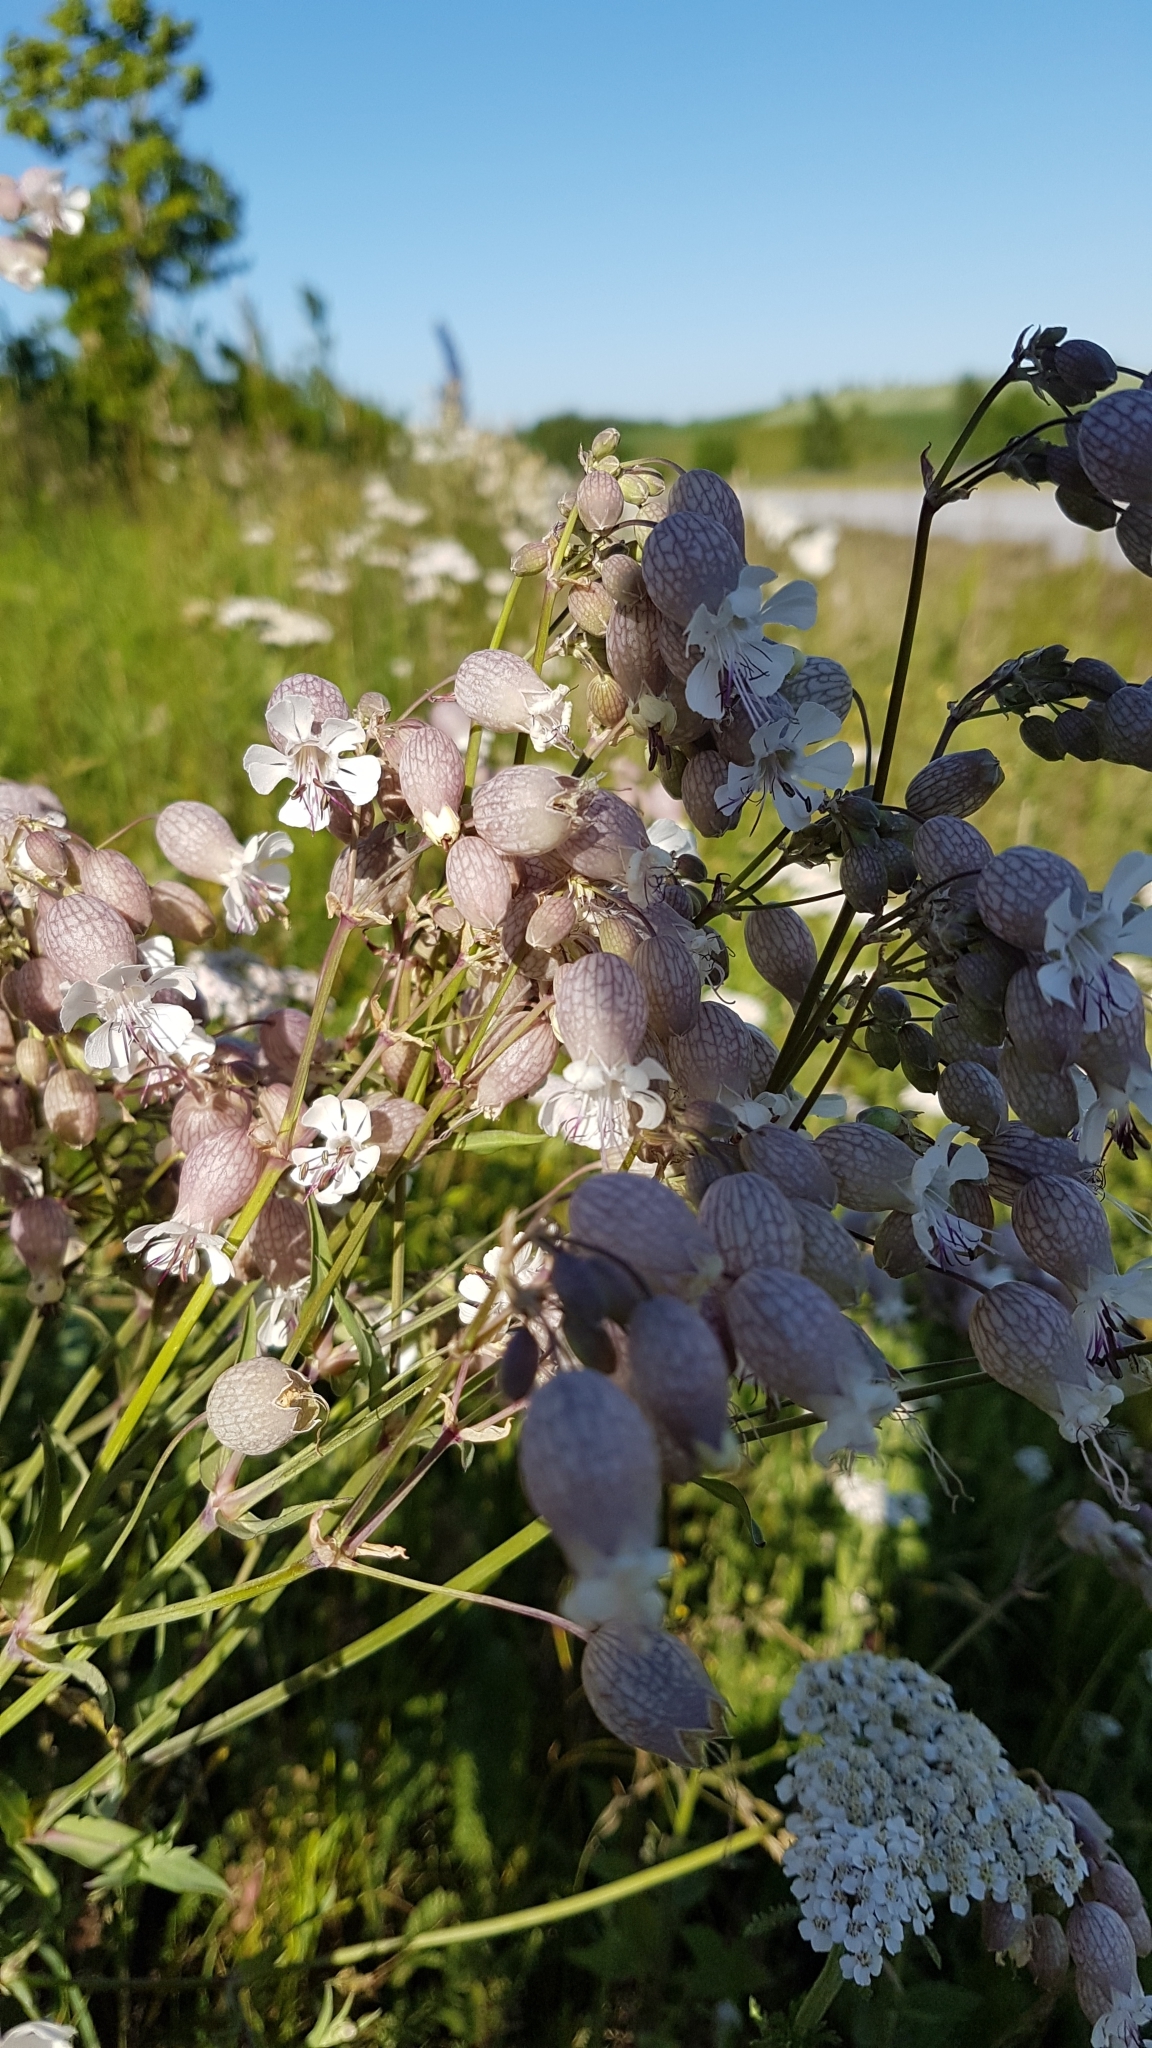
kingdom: Plantae
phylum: Tracheophyta
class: Magnoliopsida
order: Caryophyllales
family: Caryophyllaceae
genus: Silene
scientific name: Silene vulgaris
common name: Bladder campion
